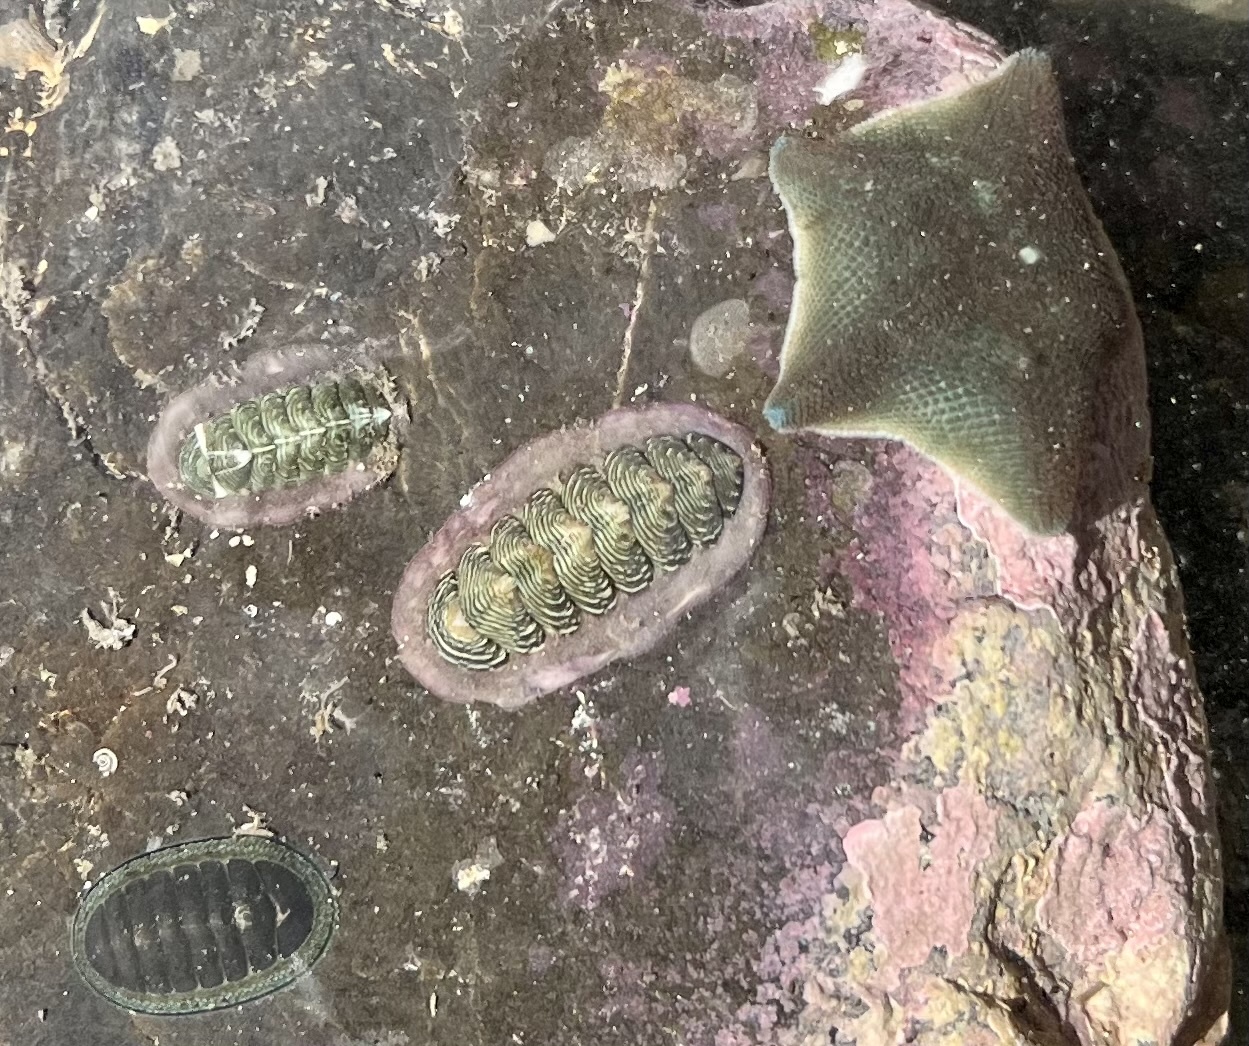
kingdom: Animalia
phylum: Mollusca
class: Polyplacophora
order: Chitonida
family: Chitonidae
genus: Onithochiton
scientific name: Onithochiton neglectus
